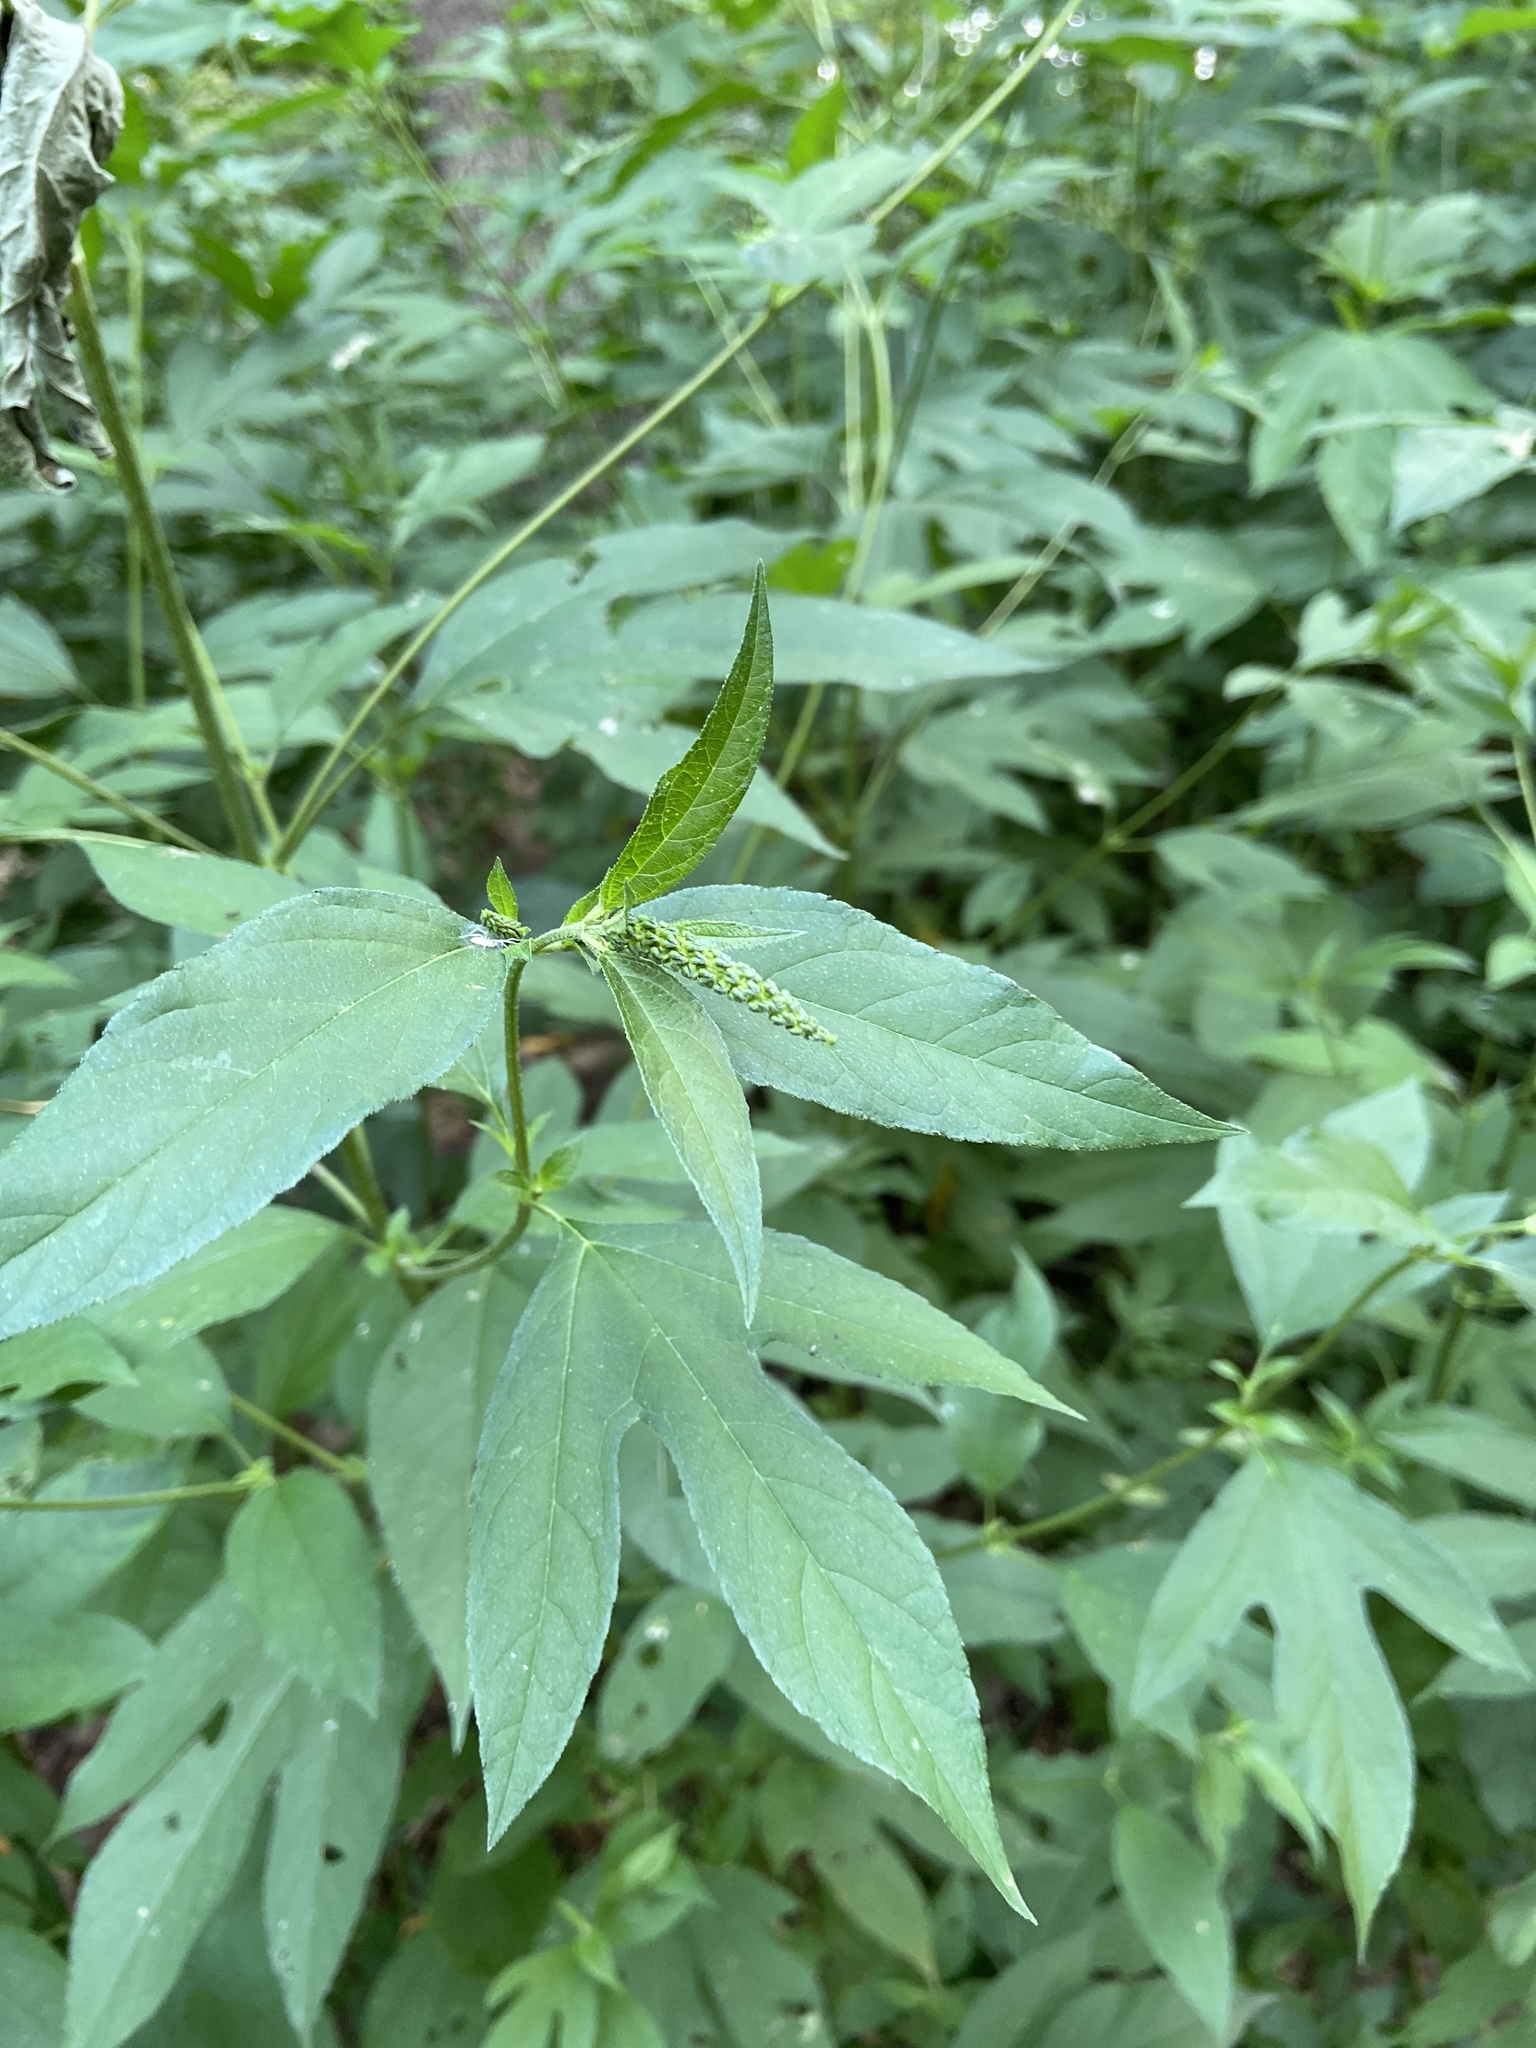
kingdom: Plantae
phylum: Tracheophyta
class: Magnoliopsida
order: Asterales
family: Asteraceae
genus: Ambrosia
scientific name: Ambrosia trifida
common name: Giant ragweed
